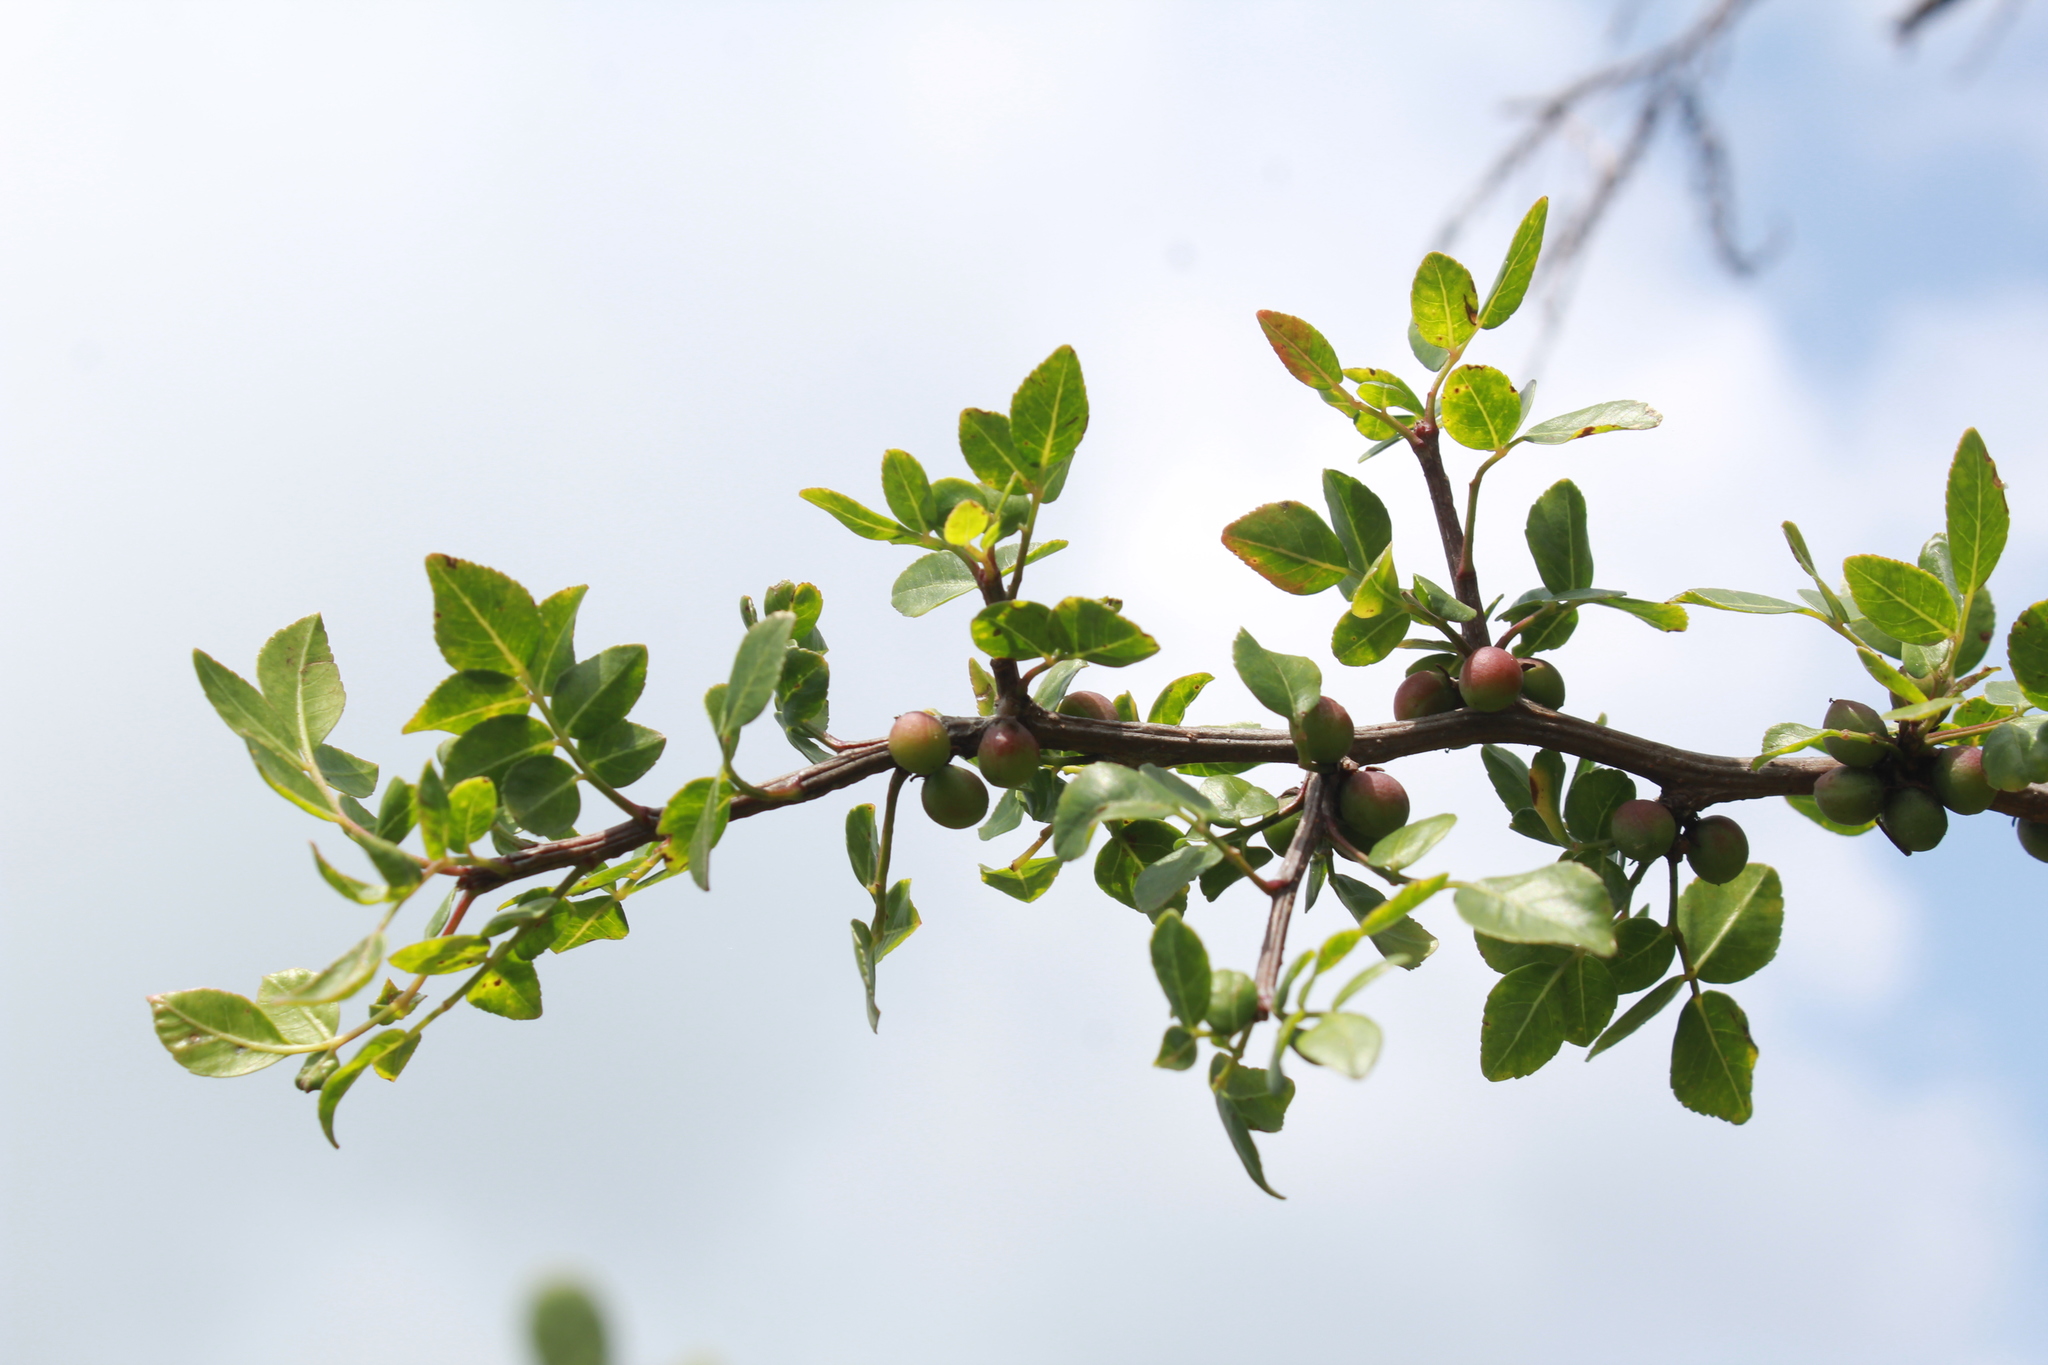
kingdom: Plantae
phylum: Tracheophyta
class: Magnoliopsida
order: Sapindales
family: Burseraceae
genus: Bursera
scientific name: Bursera fagaroides
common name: Elephant tree
